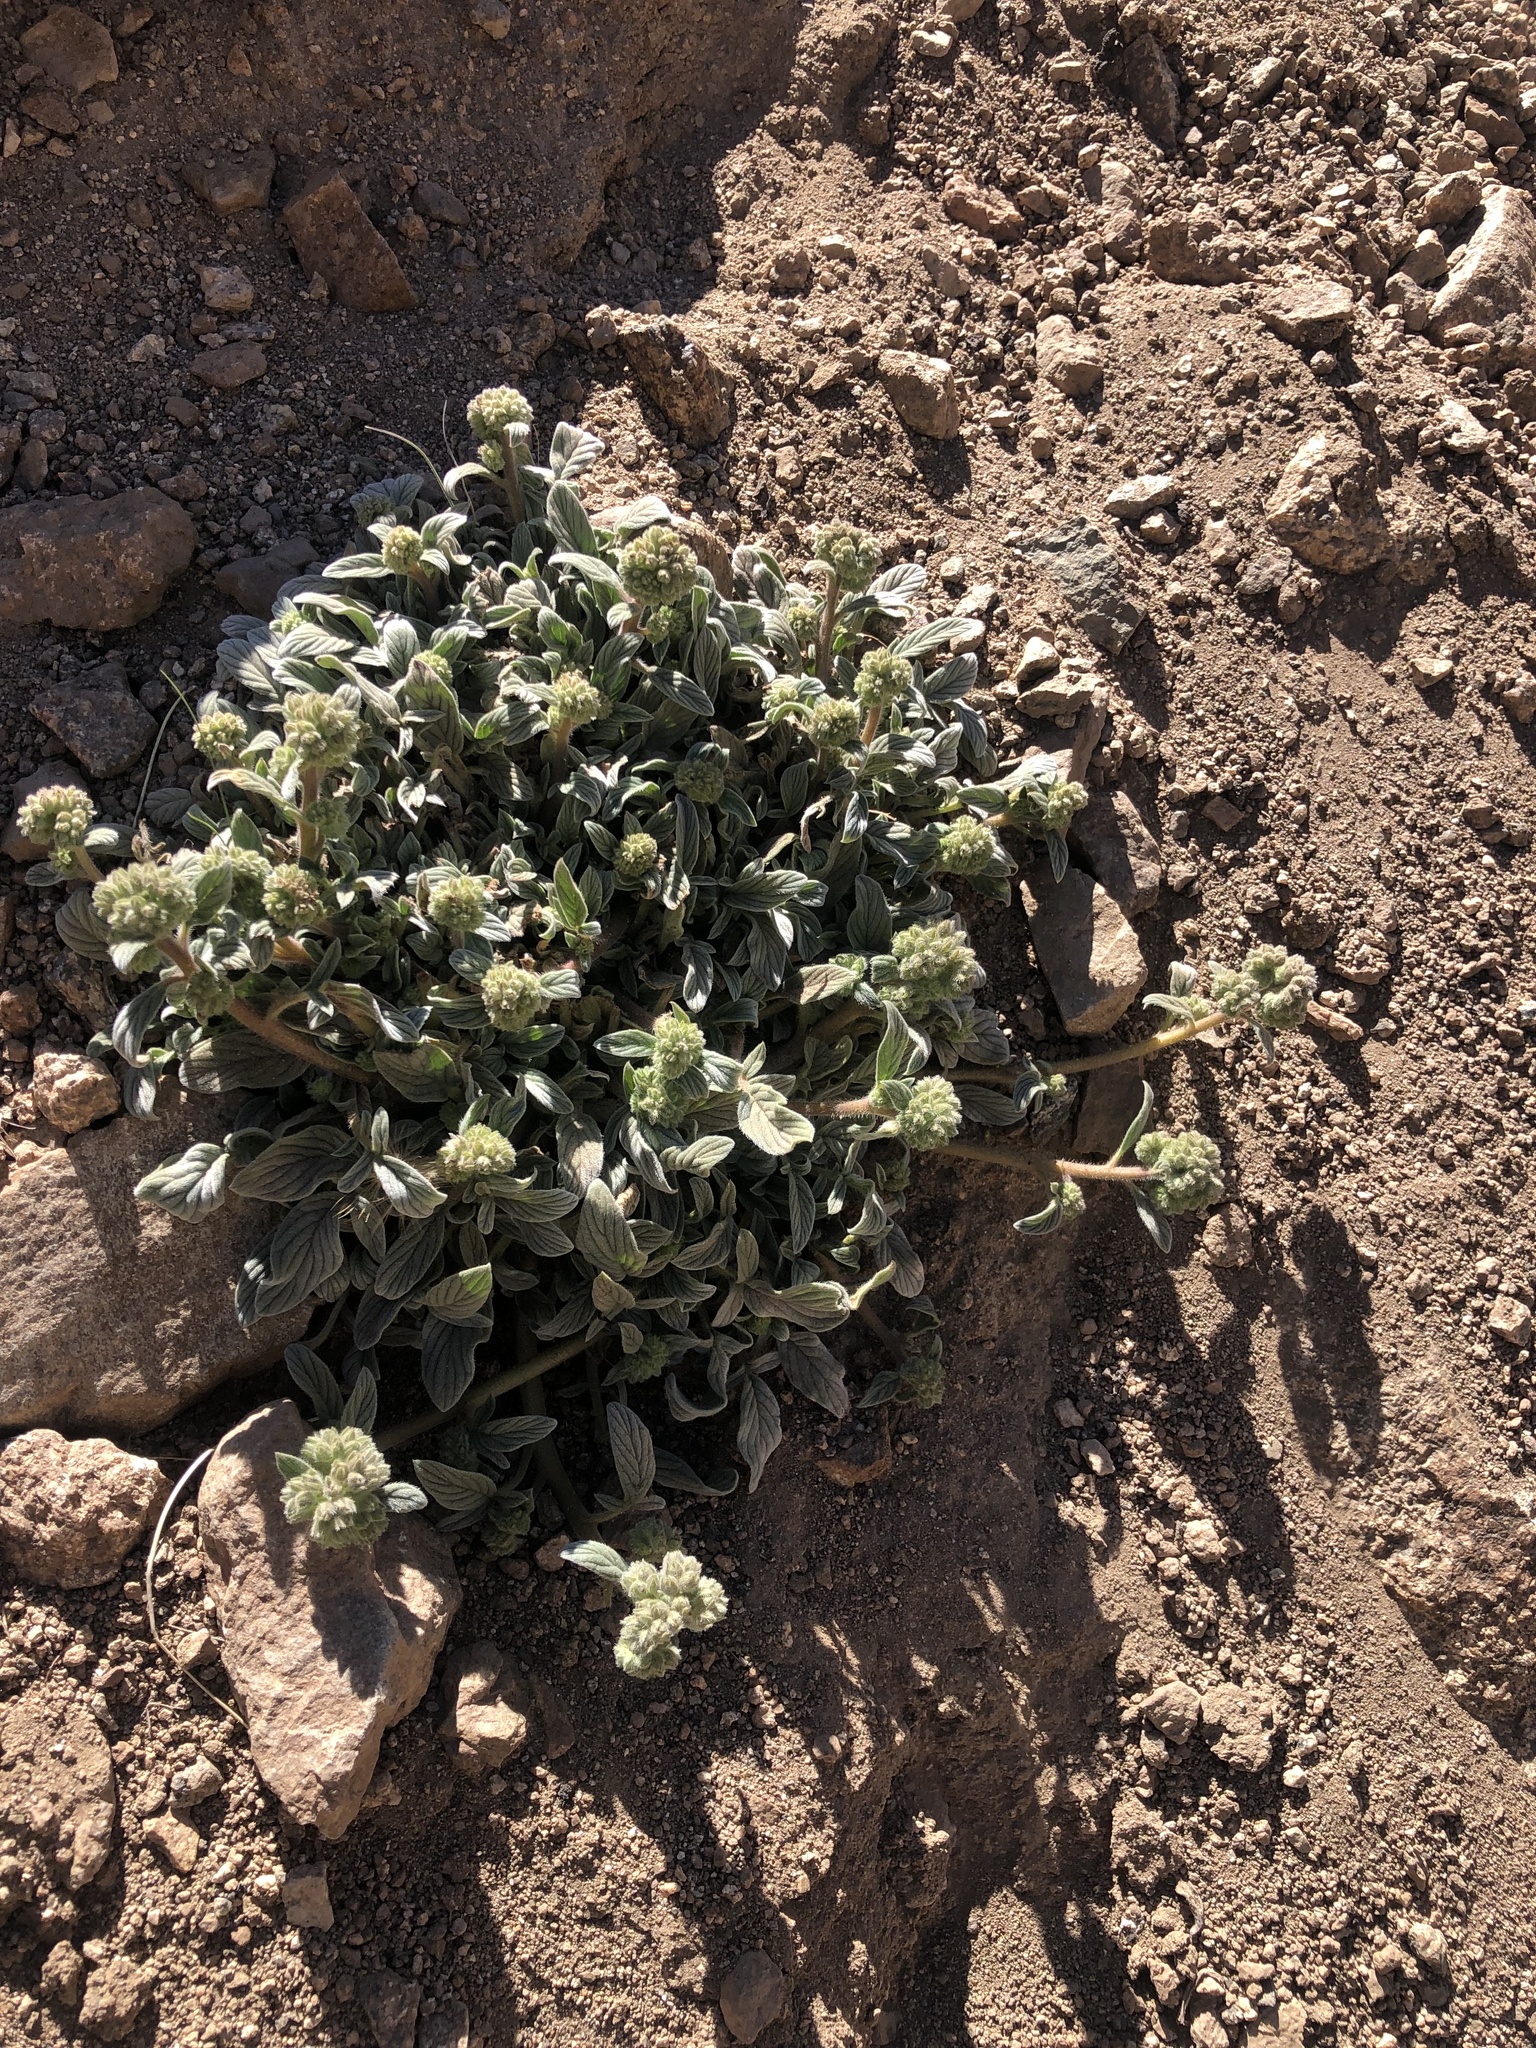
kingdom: Plantae
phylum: Tracheophyta
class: Magnoliopsida
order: Boraginales
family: Hydrophyllaceae
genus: Phacelia
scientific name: Phacelia secunda
